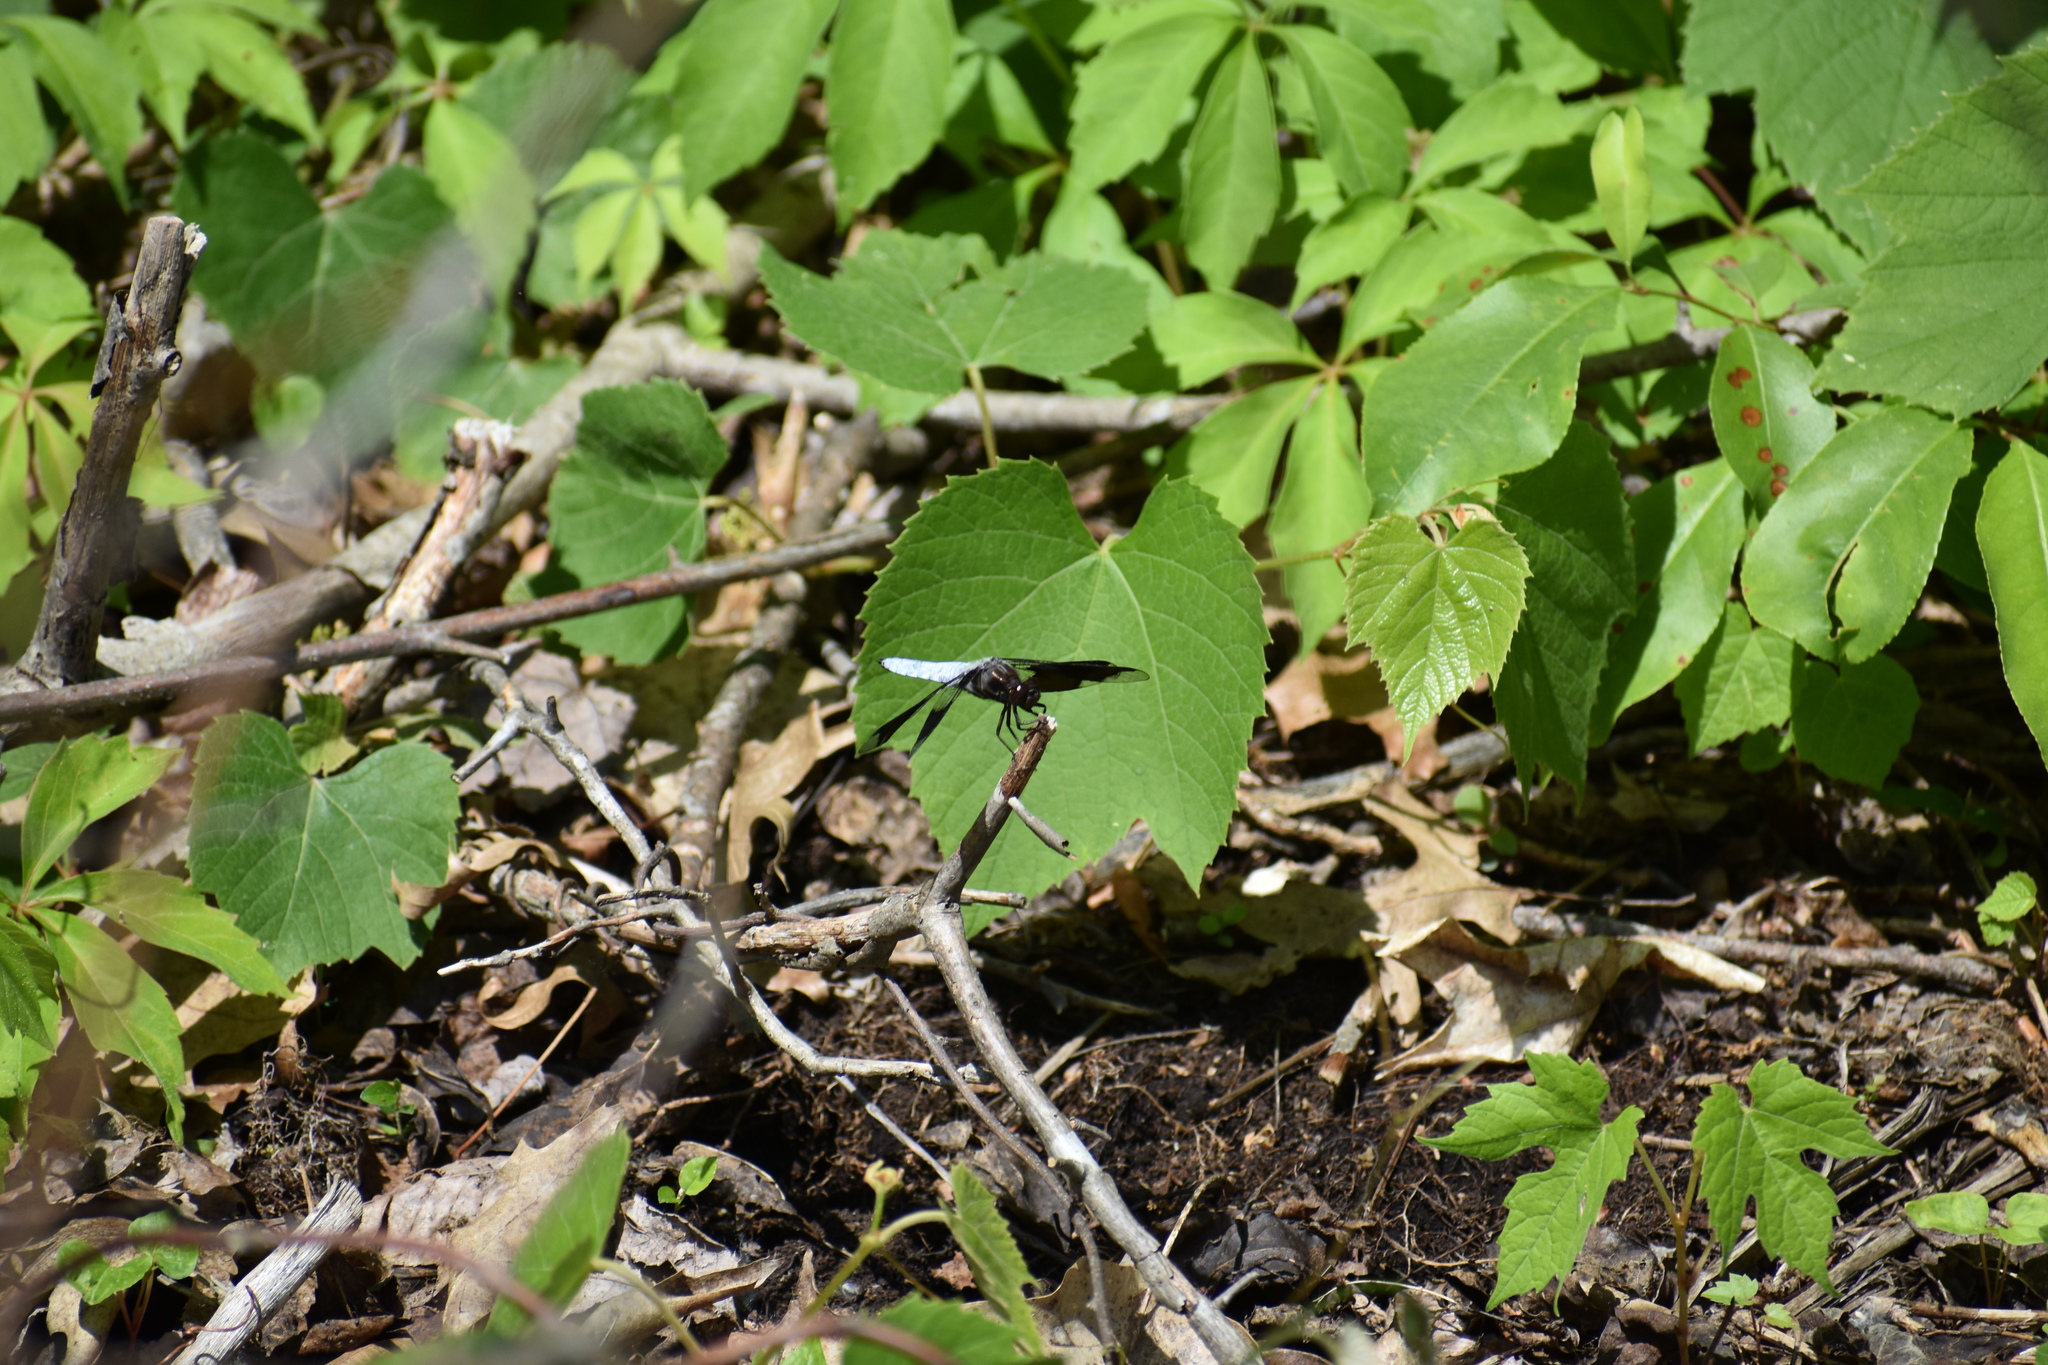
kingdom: Animalia
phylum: Arthropoda
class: Insecta
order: Odonata
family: Libellulidae
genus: Plathemis
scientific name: Plathemis lydia
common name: Common whitetail
